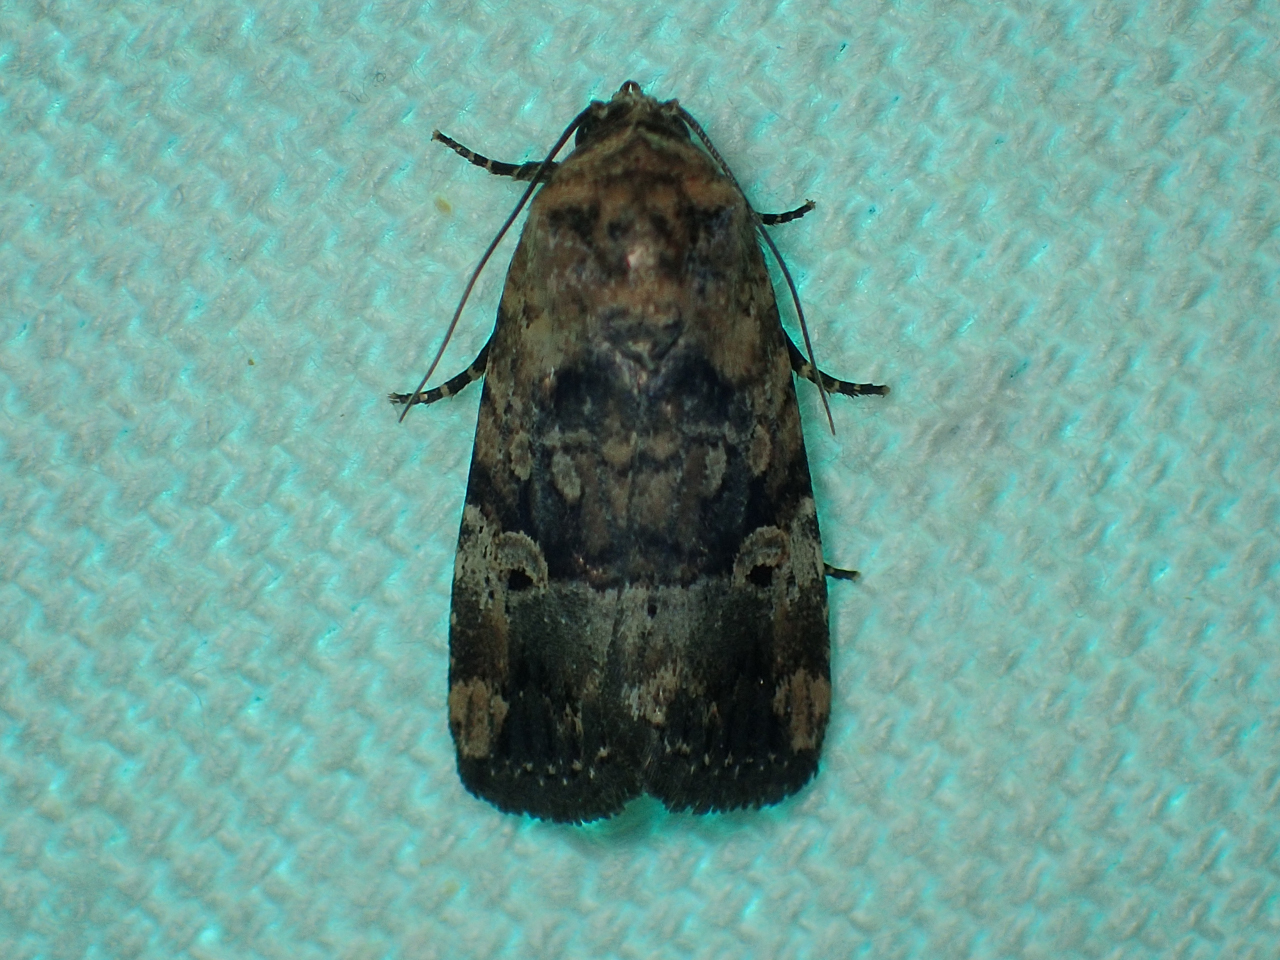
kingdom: Animalia
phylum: Arthropoda
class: Insecta
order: Lepidoptera
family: Noctuidae
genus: Elaphria
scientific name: Elaphria chalcedonia
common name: Chalcedony midget
